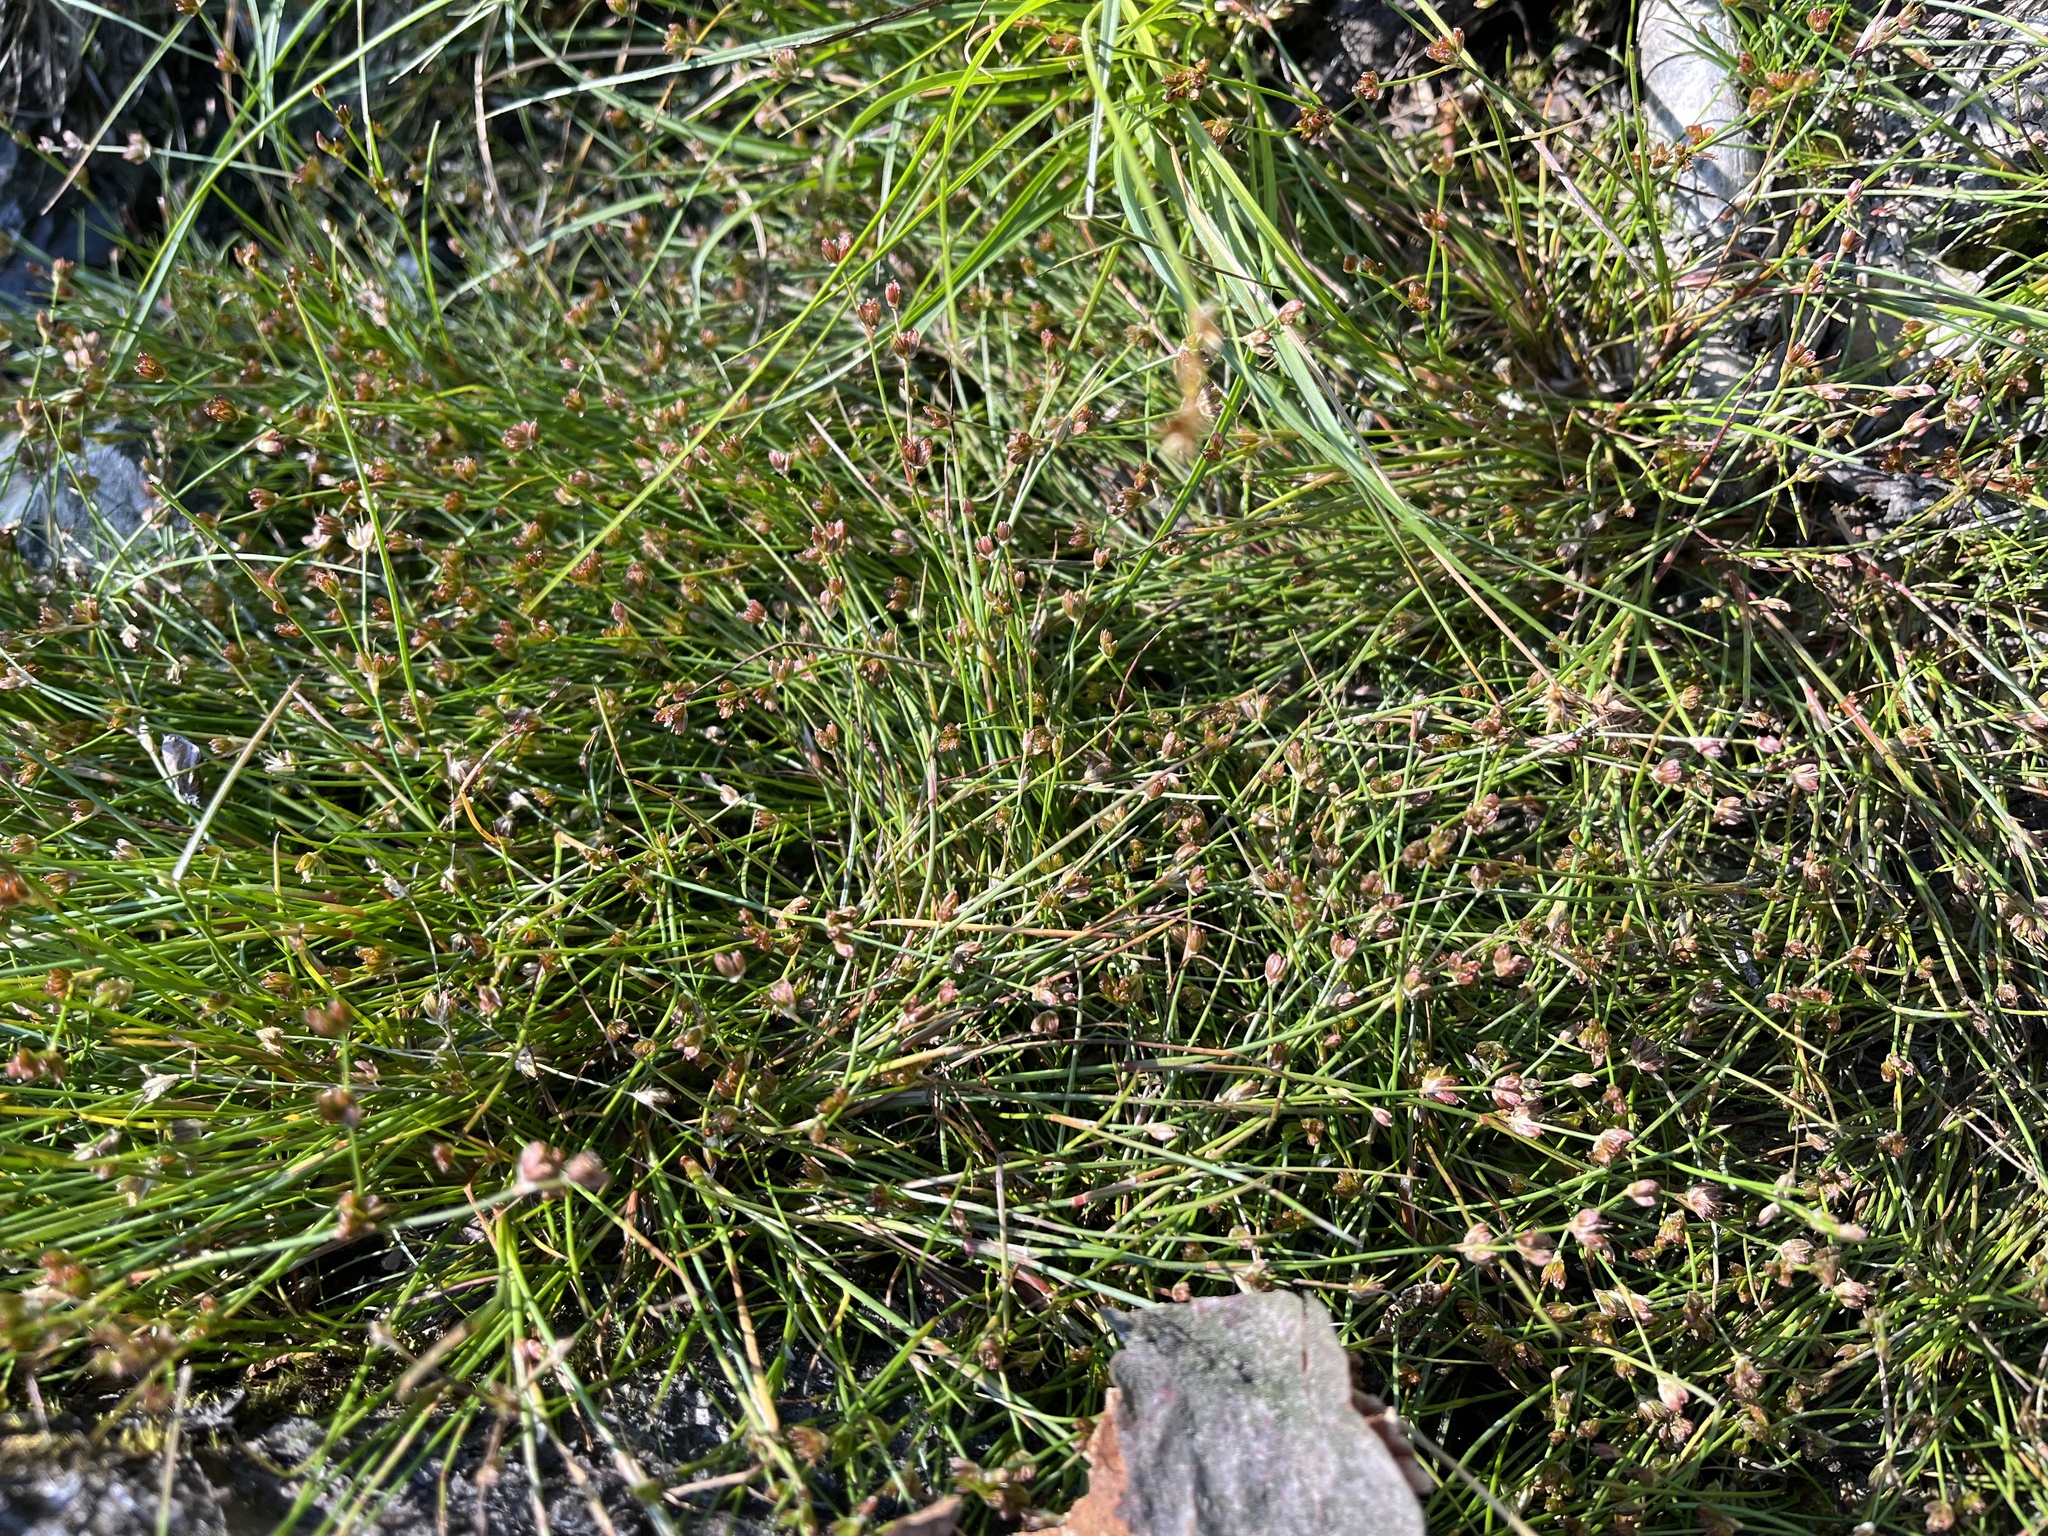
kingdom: Plantae
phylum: Tracheophyta
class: Liliopsida
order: Poales
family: Juncaceae
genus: Juncus
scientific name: Juncus bulbosus
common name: Bulbous rush
